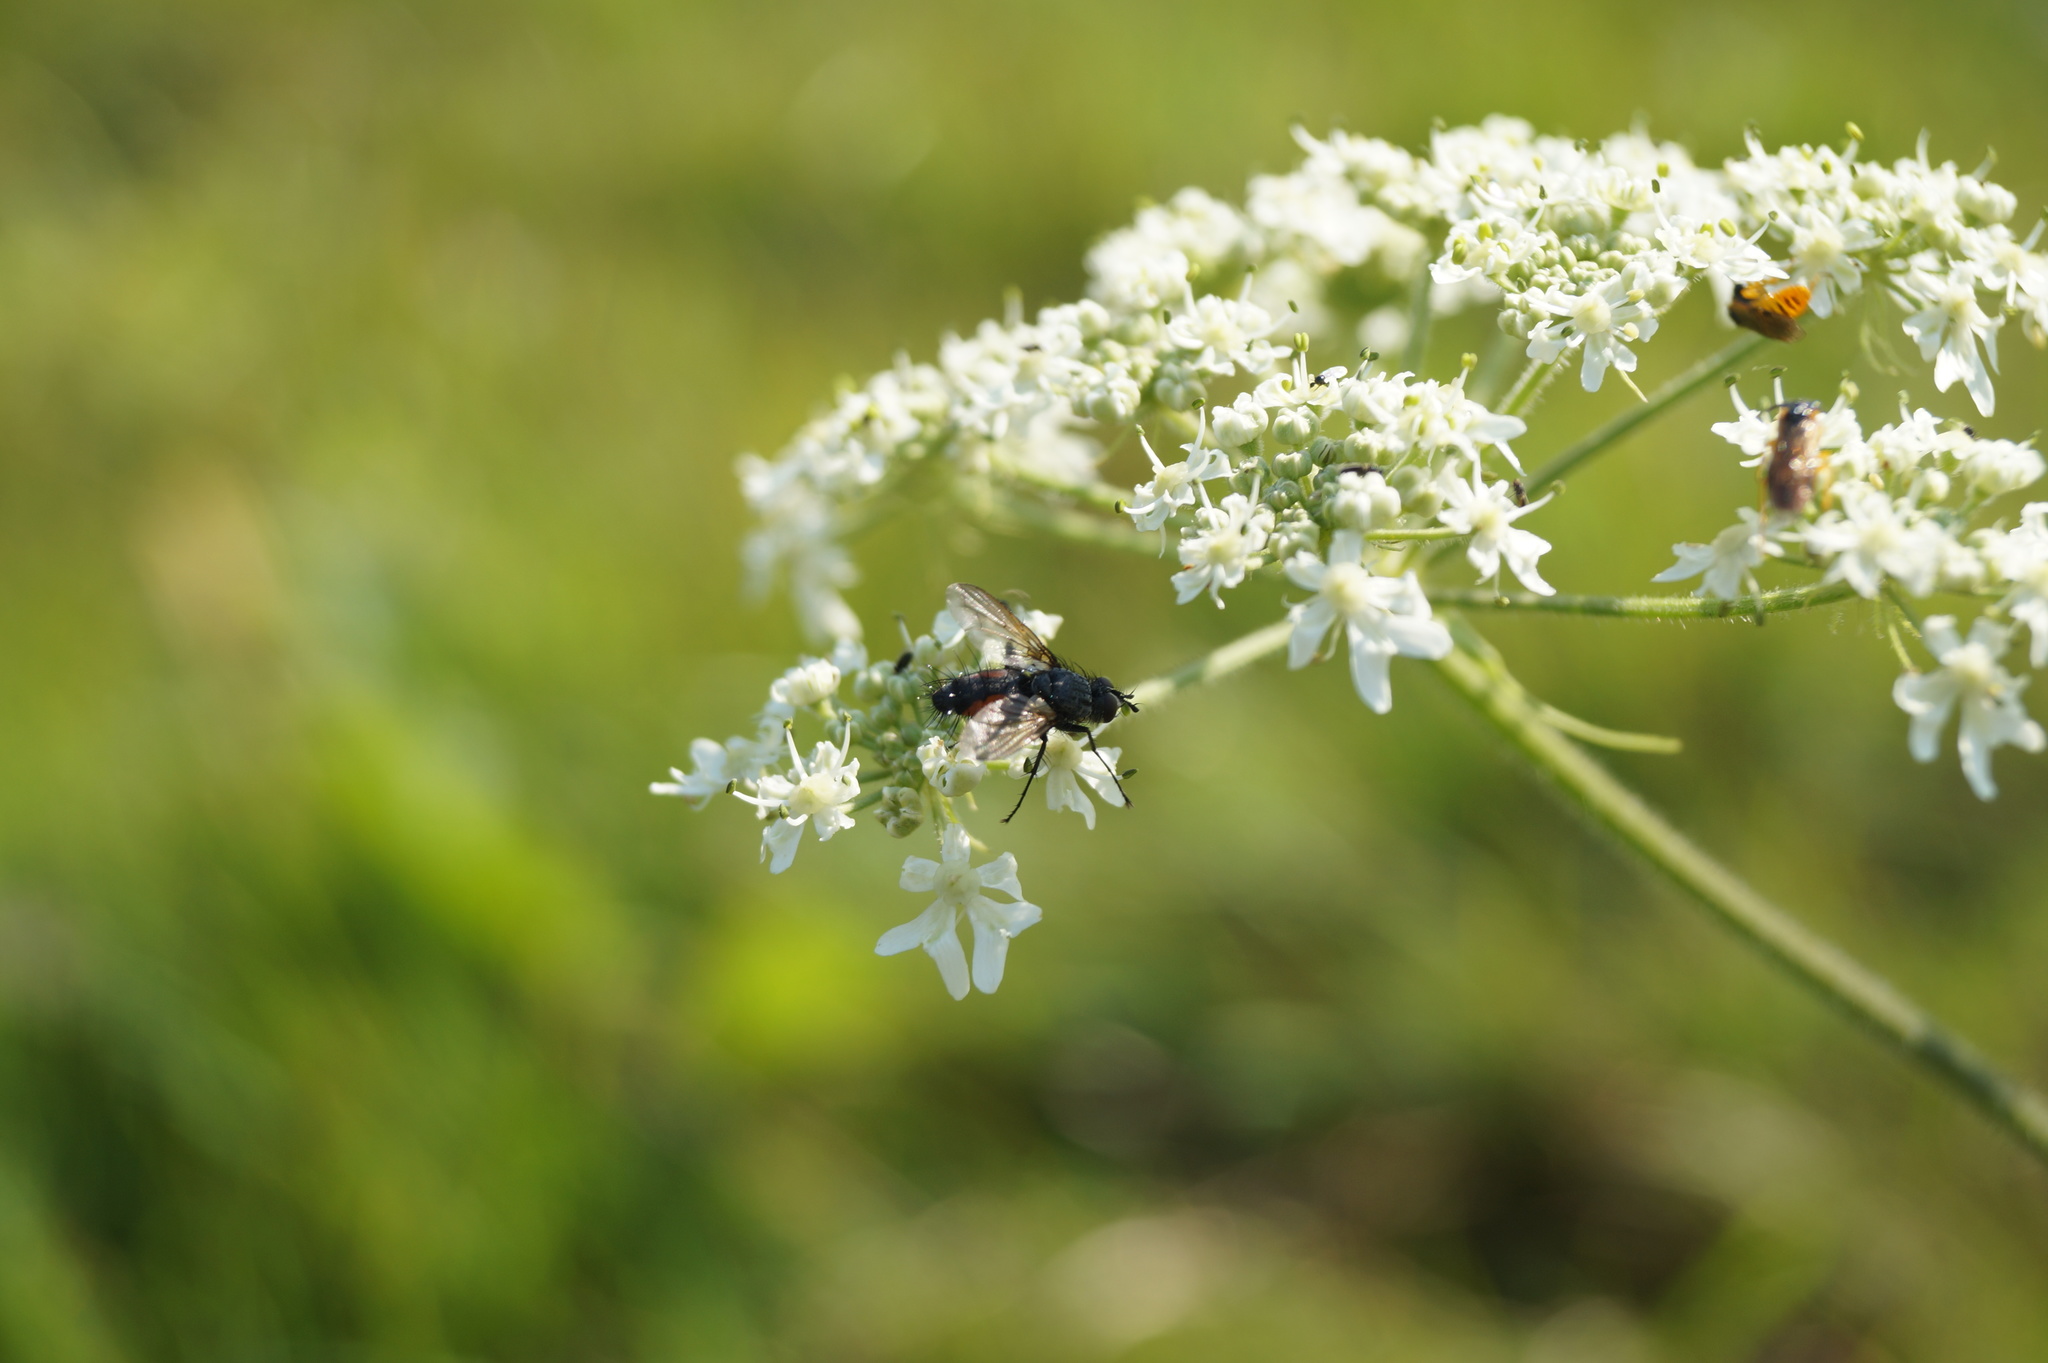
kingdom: Animalia
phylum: Arthropoda
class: Insecta
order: Diptera
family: Tachinidae
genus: Eriothrix
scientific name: Eriothrix rufomaculatus
